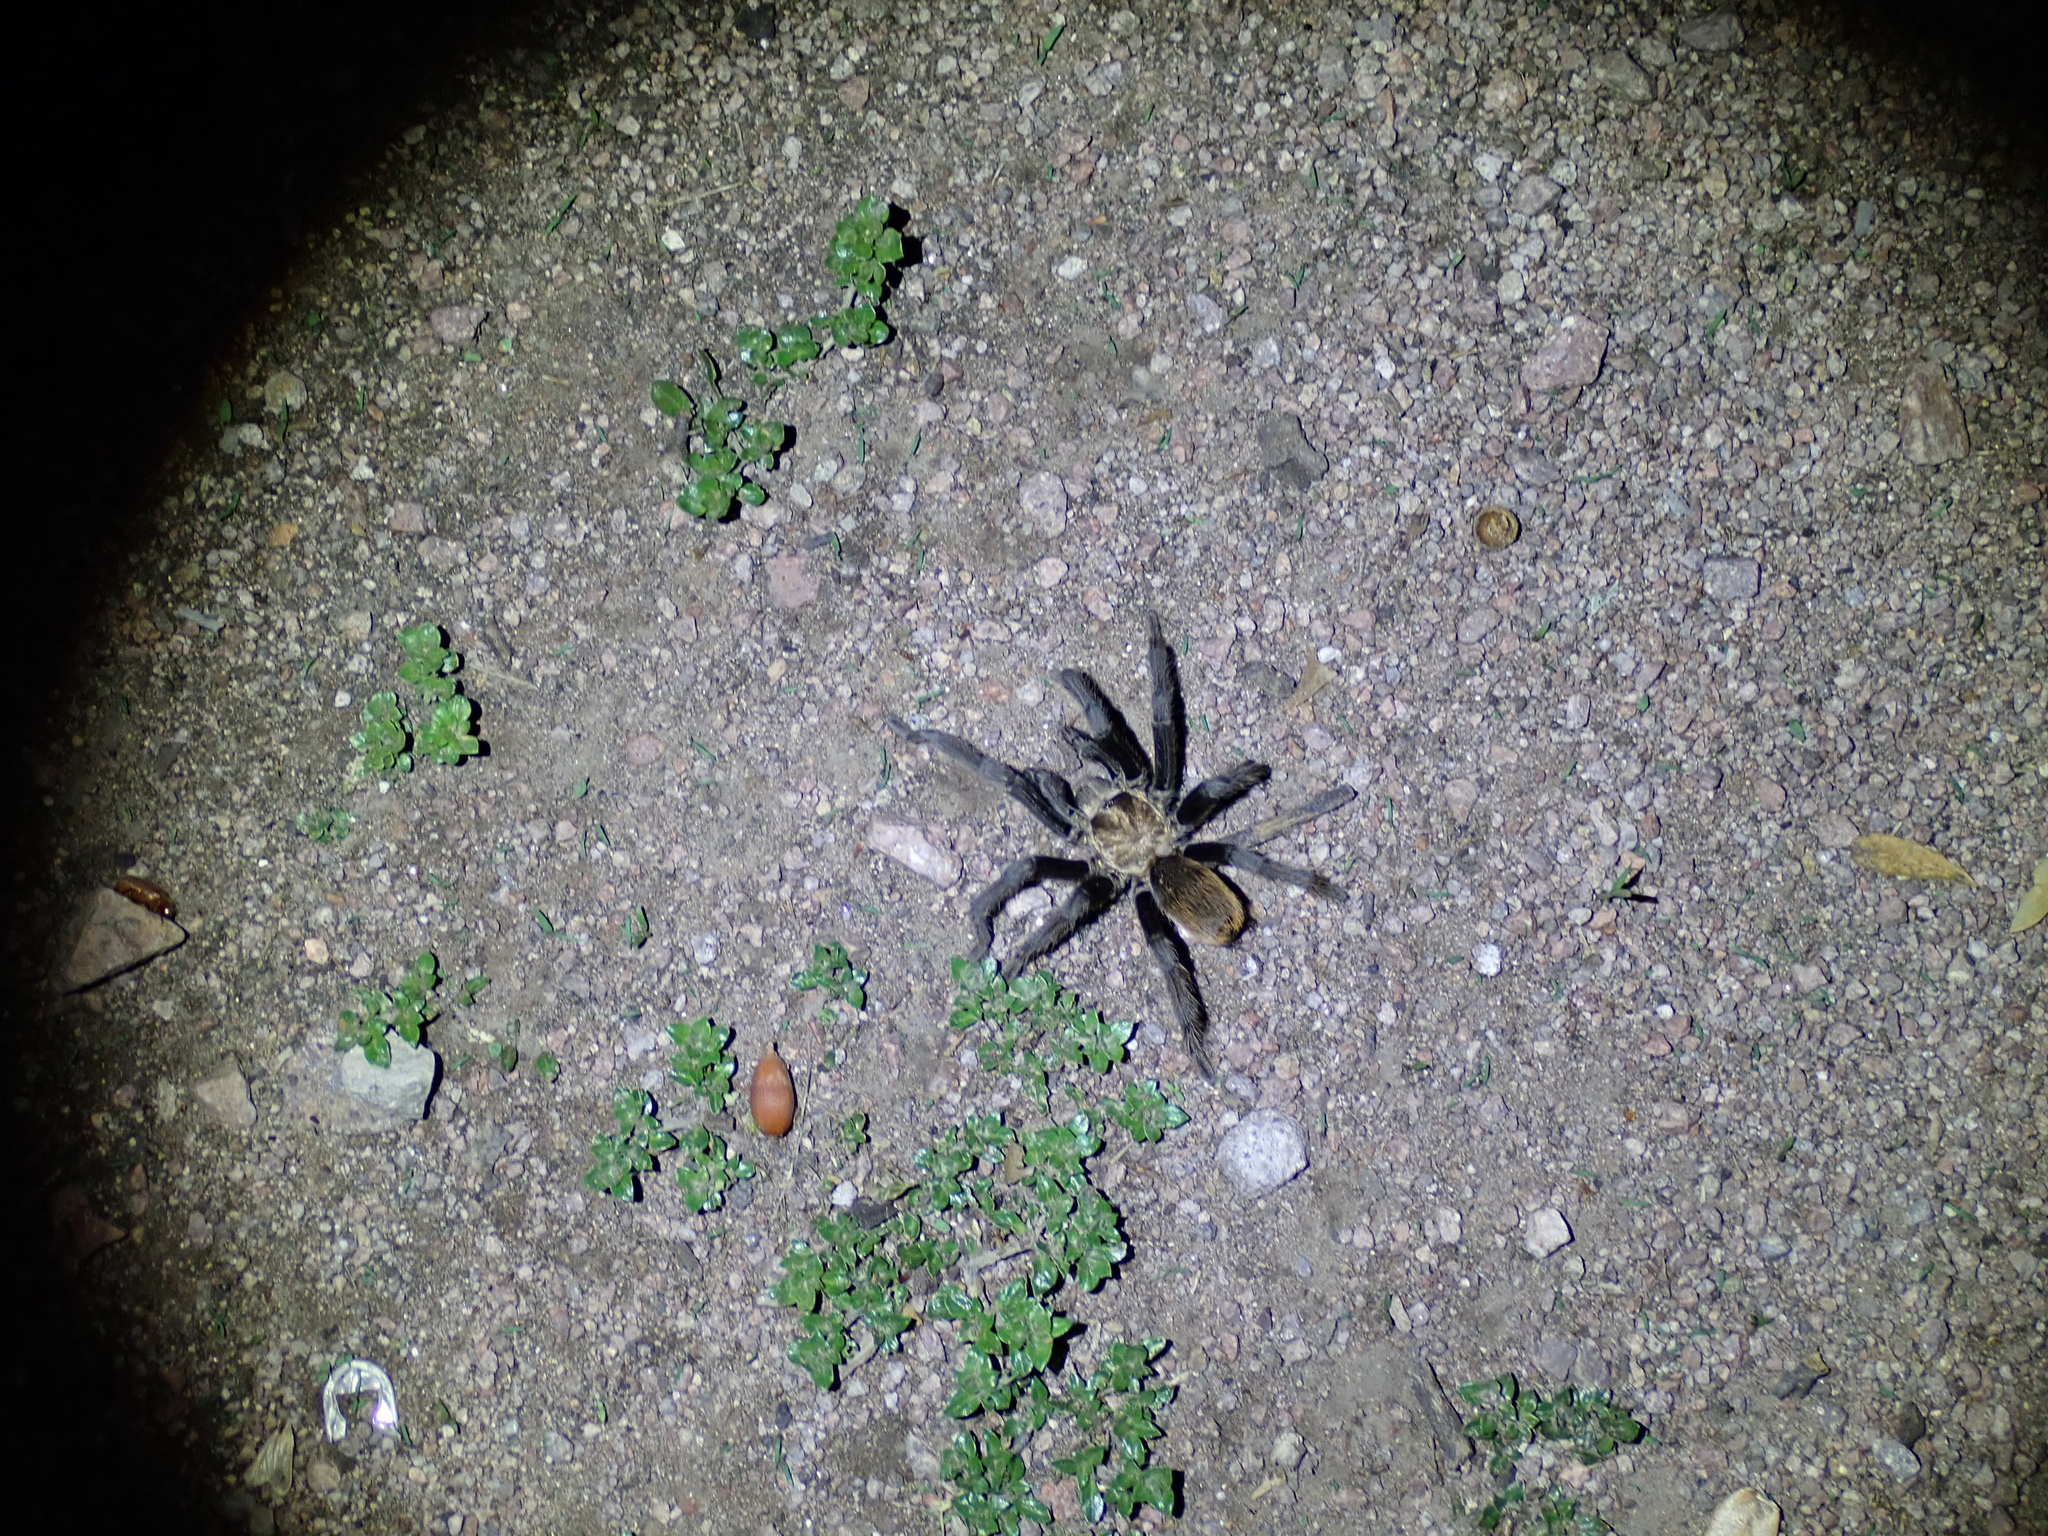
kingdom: Animalia
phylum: Arthropoda
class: Arachnida
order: Araneae
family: Theraphosidae
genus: Aphonopelma
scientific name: Aphonopelma chalcodes
